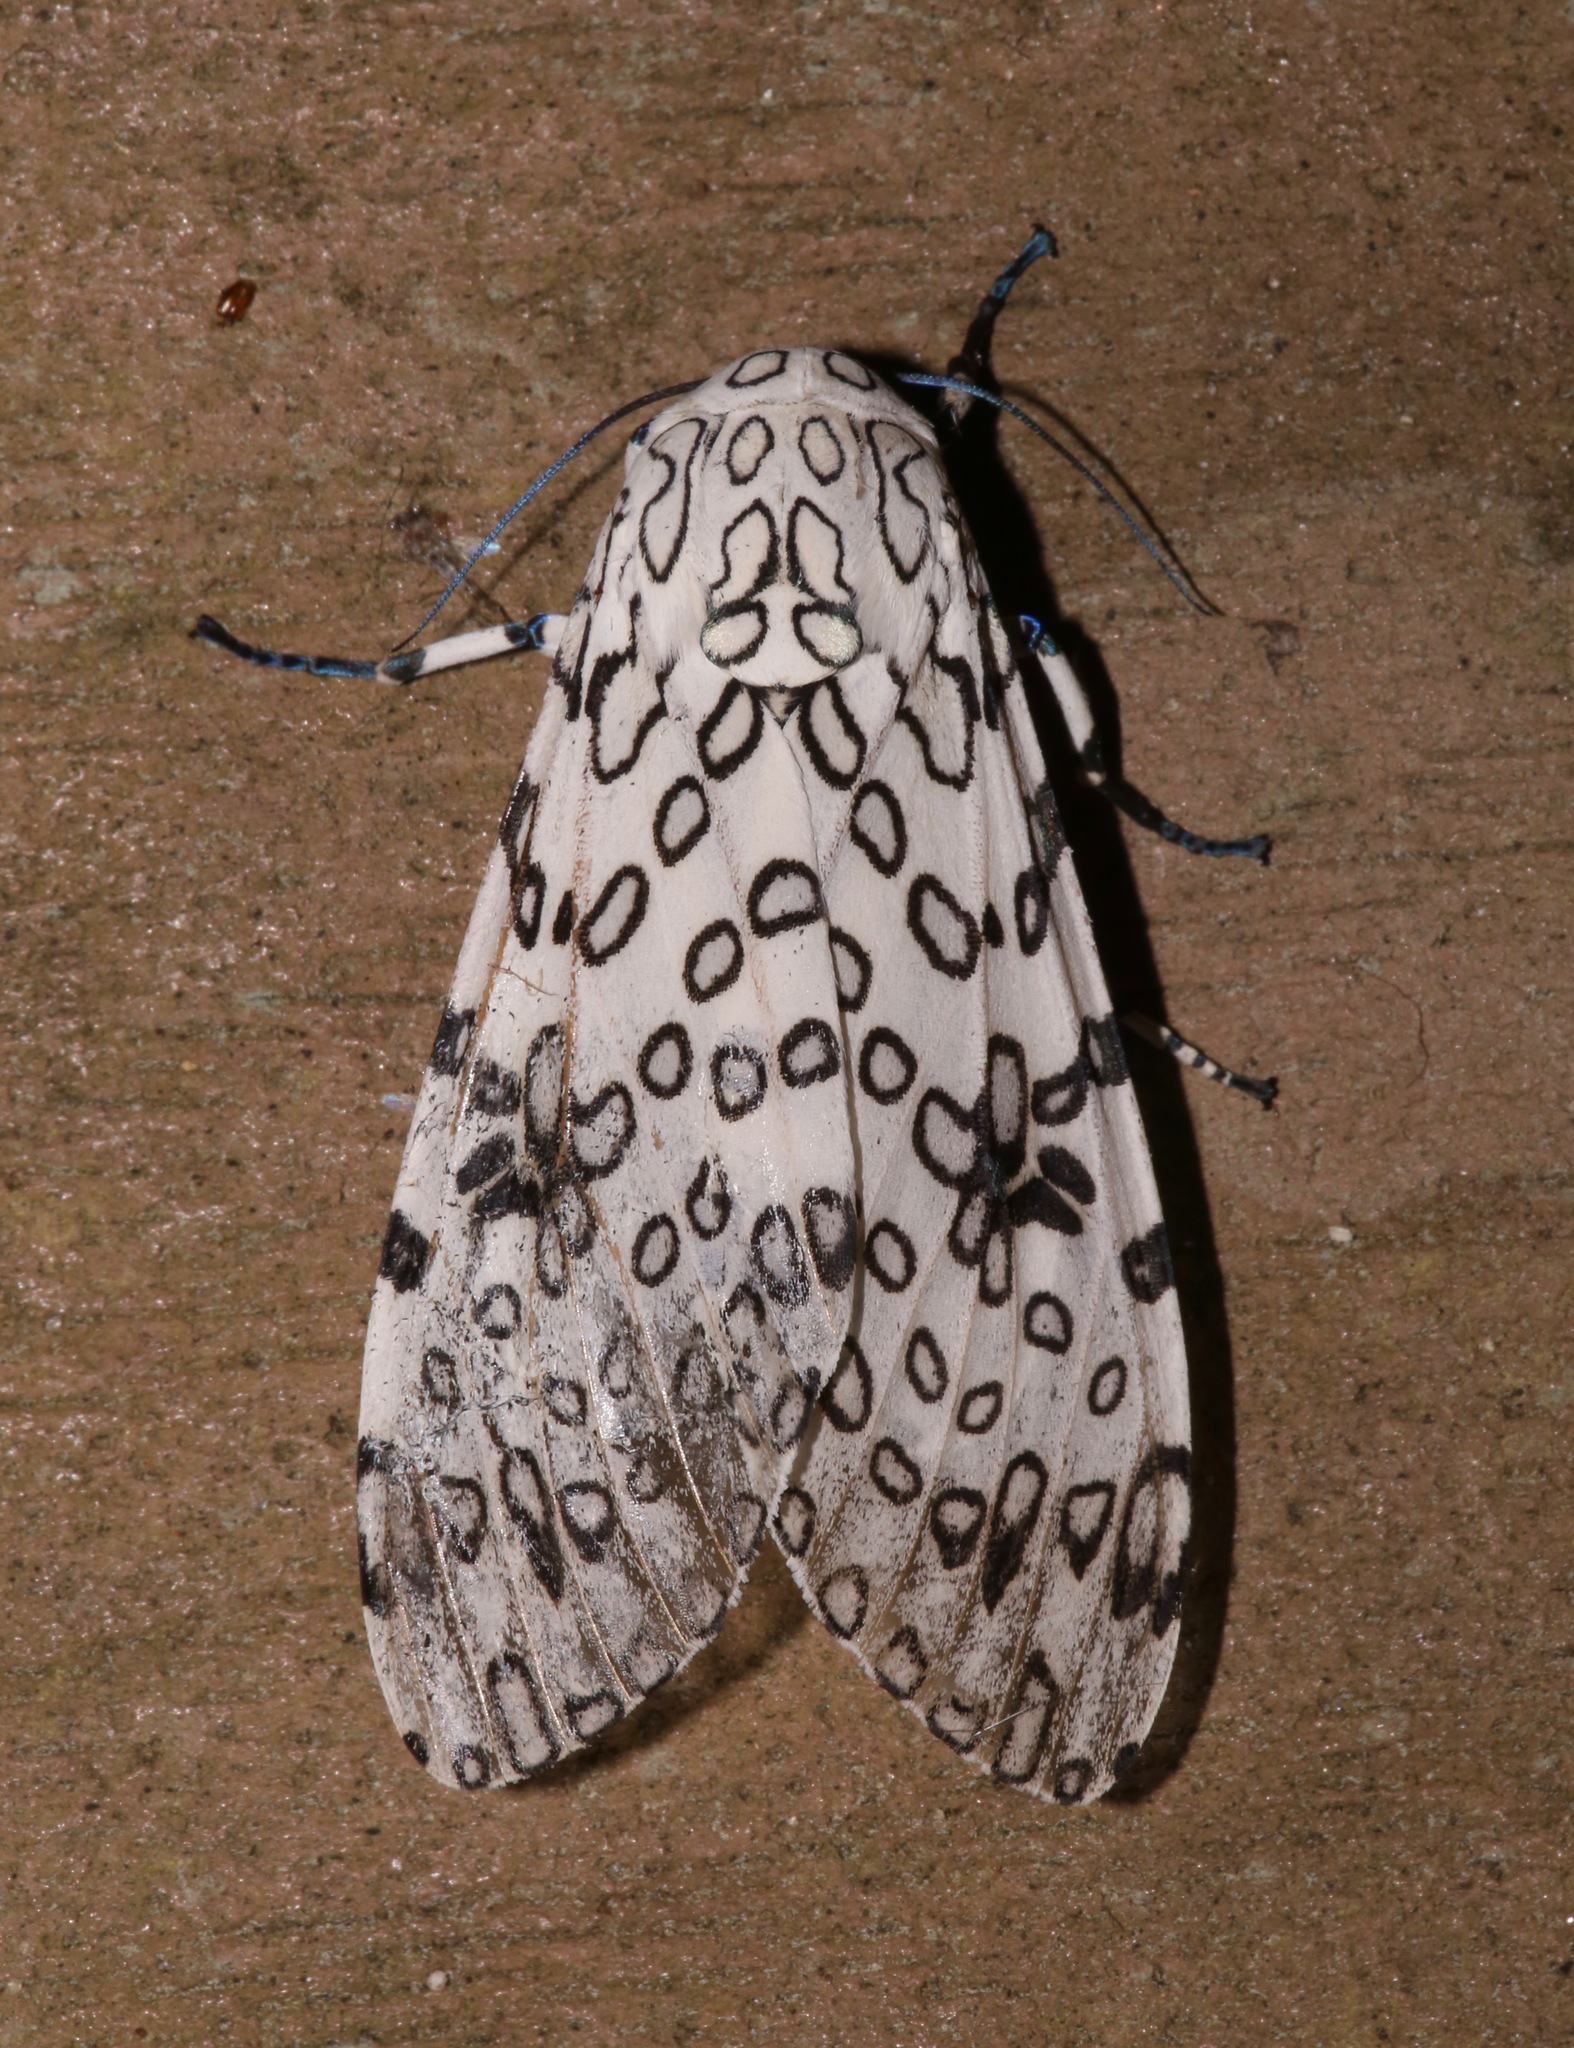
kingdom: Animalia
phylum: Arthropoda
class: Insecta
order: Lepidoptera
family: Erebidae
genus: Hypercompe
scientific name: Hypercompe scribonia
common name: Giant leopard moth
